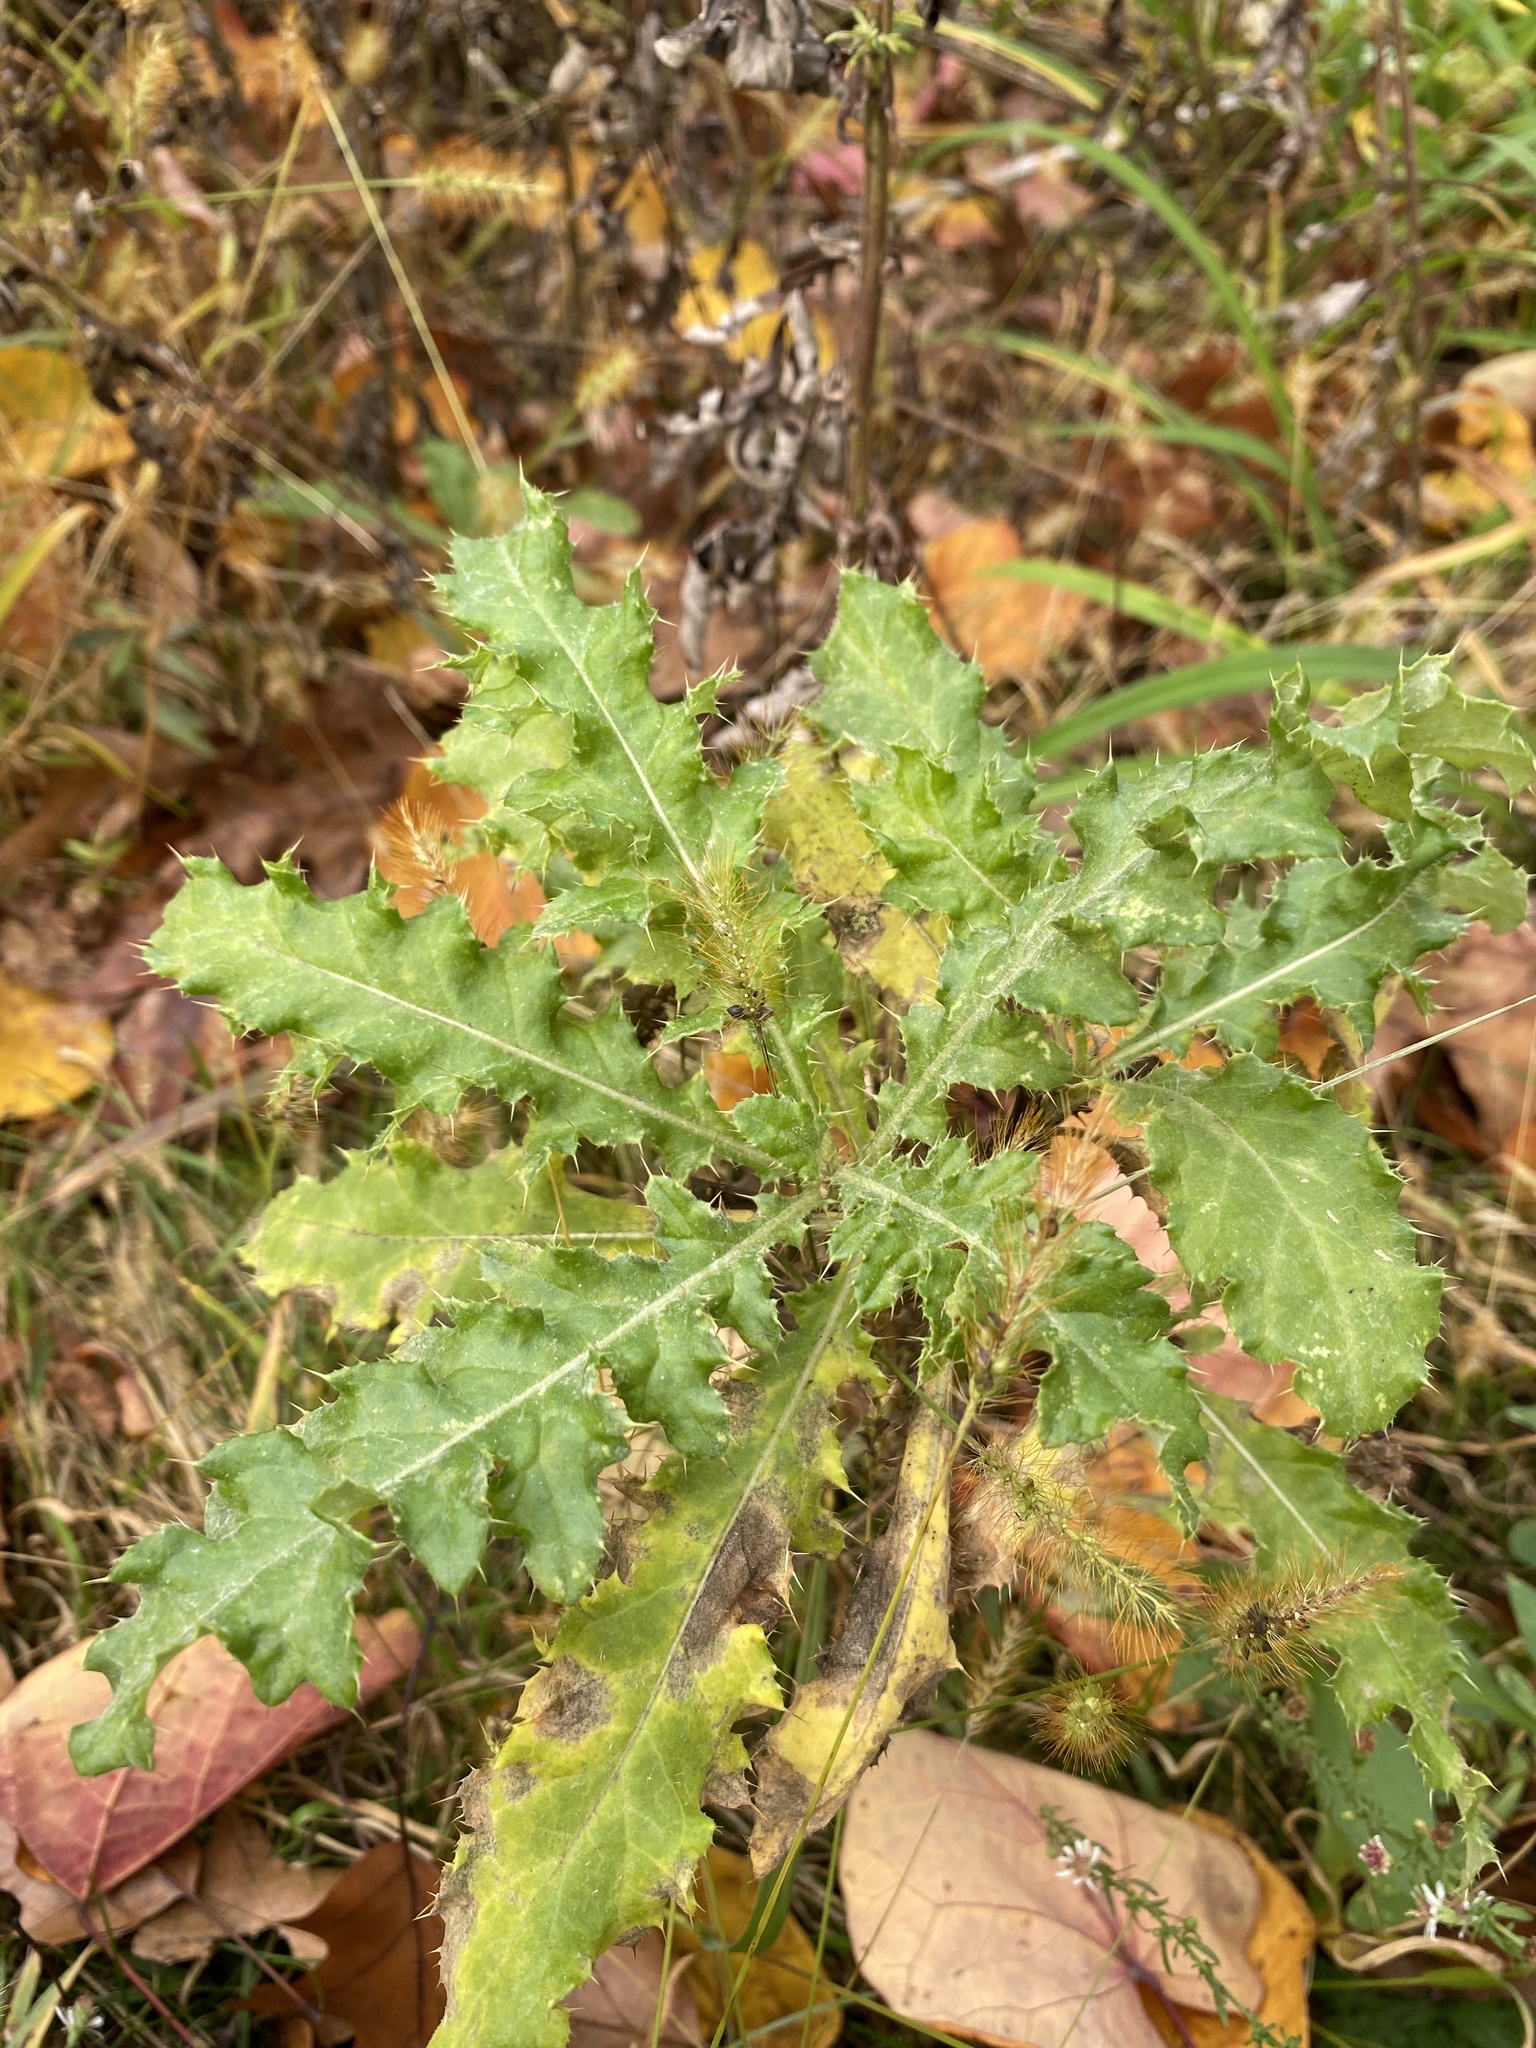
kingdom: Plantae
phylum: Tracheophyta
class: Magnoliopsida
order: Asterales
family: Asteraceae
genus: Cirsium
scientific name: Cirsium arvense
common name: Creeping thistle
